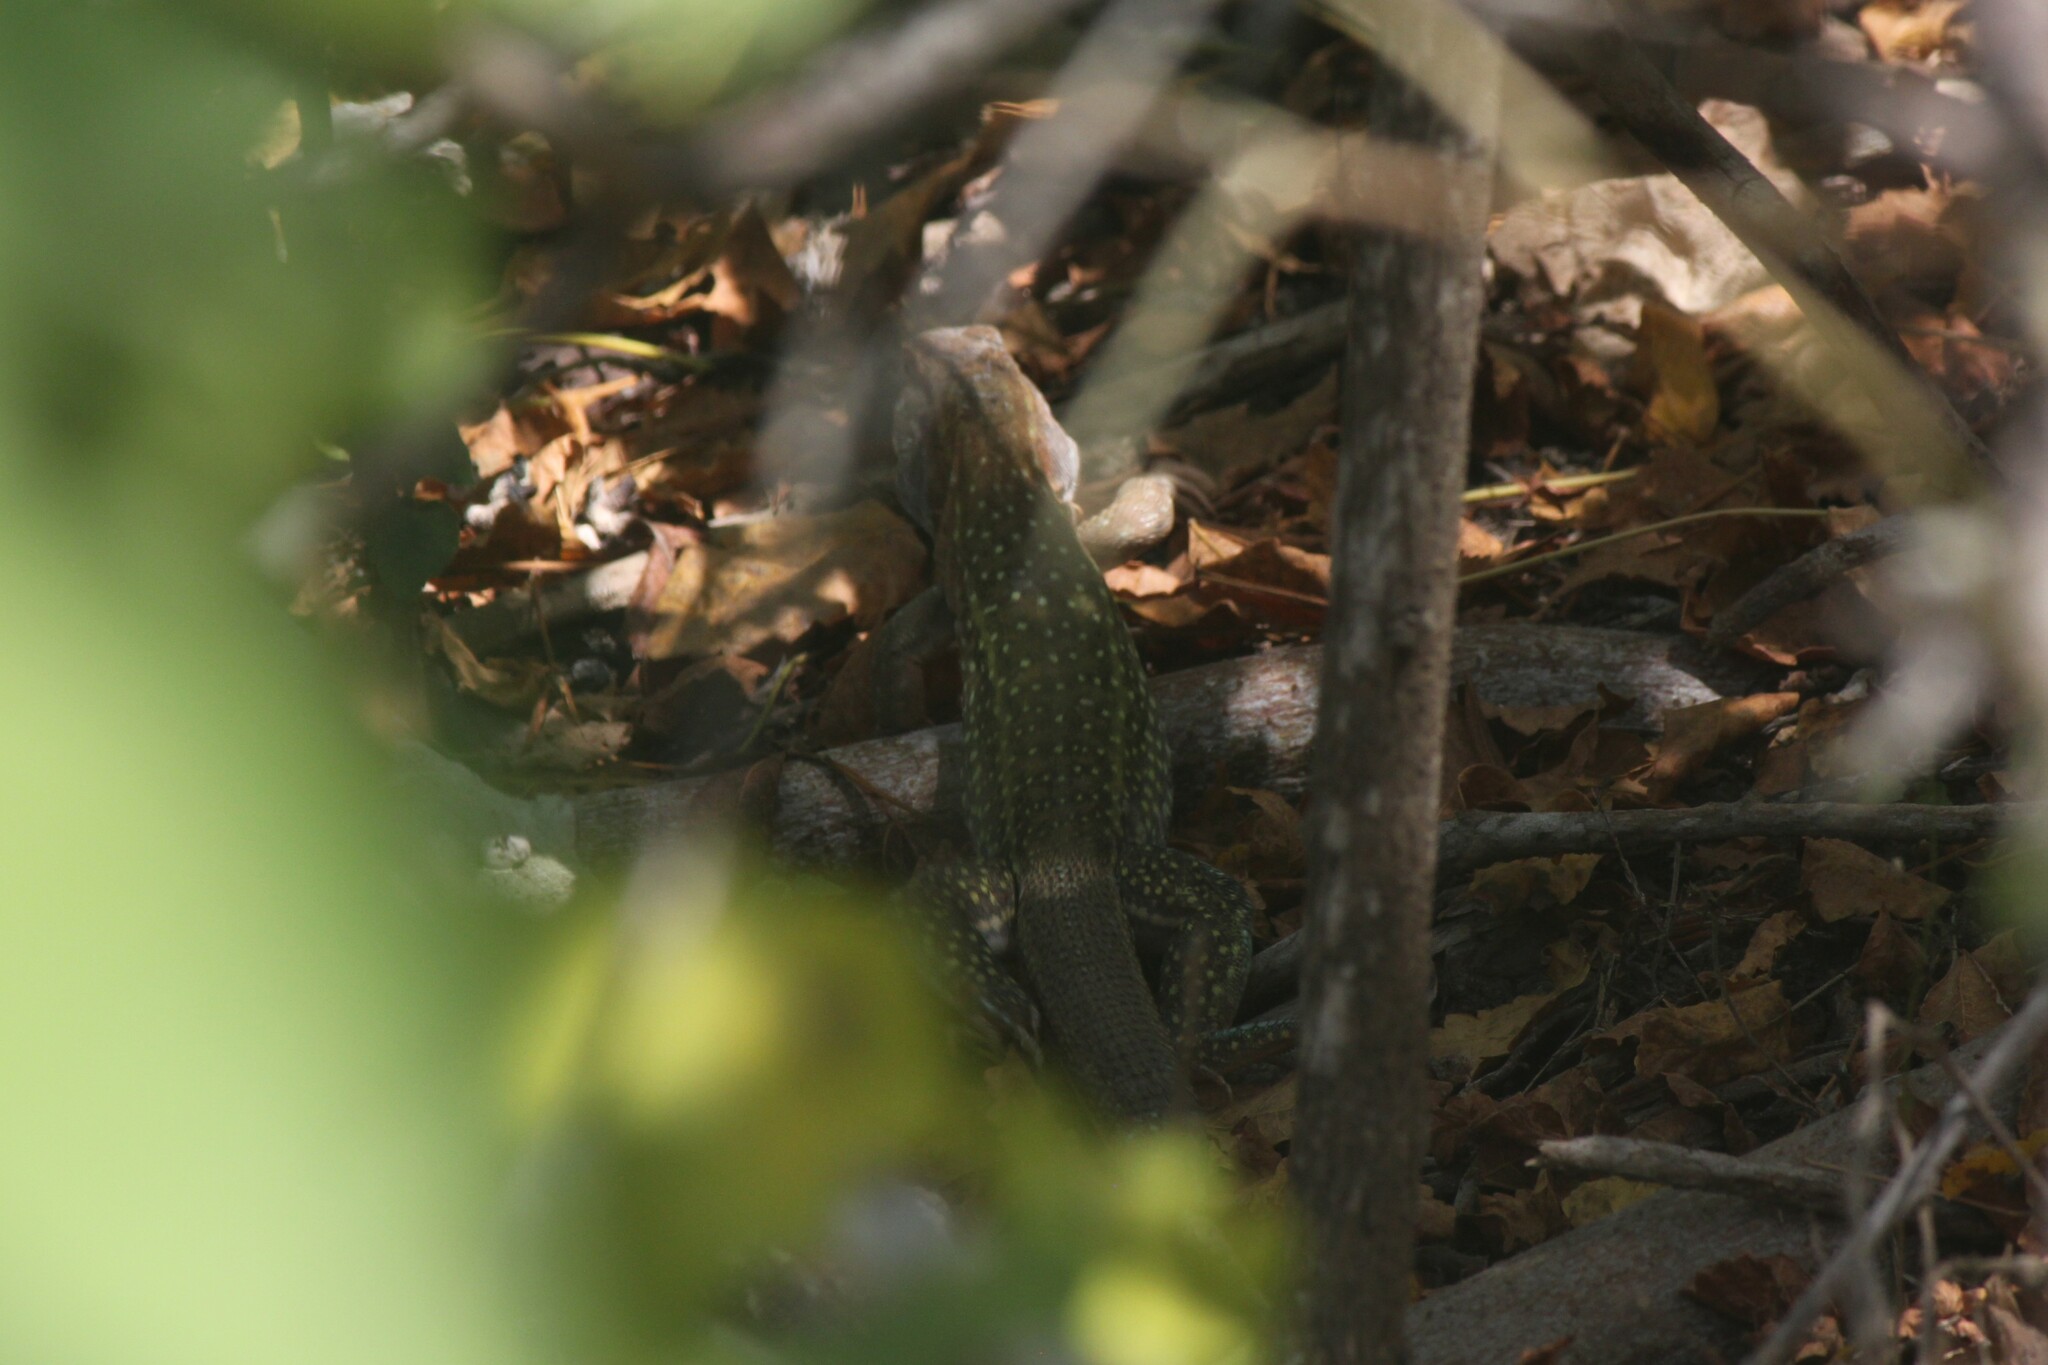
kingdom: Animalia
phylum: Chordata
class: Squamata
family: Teiidae
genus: Dicrodon
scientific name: Dicrodon guttulatum
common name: Peru desert tegu
